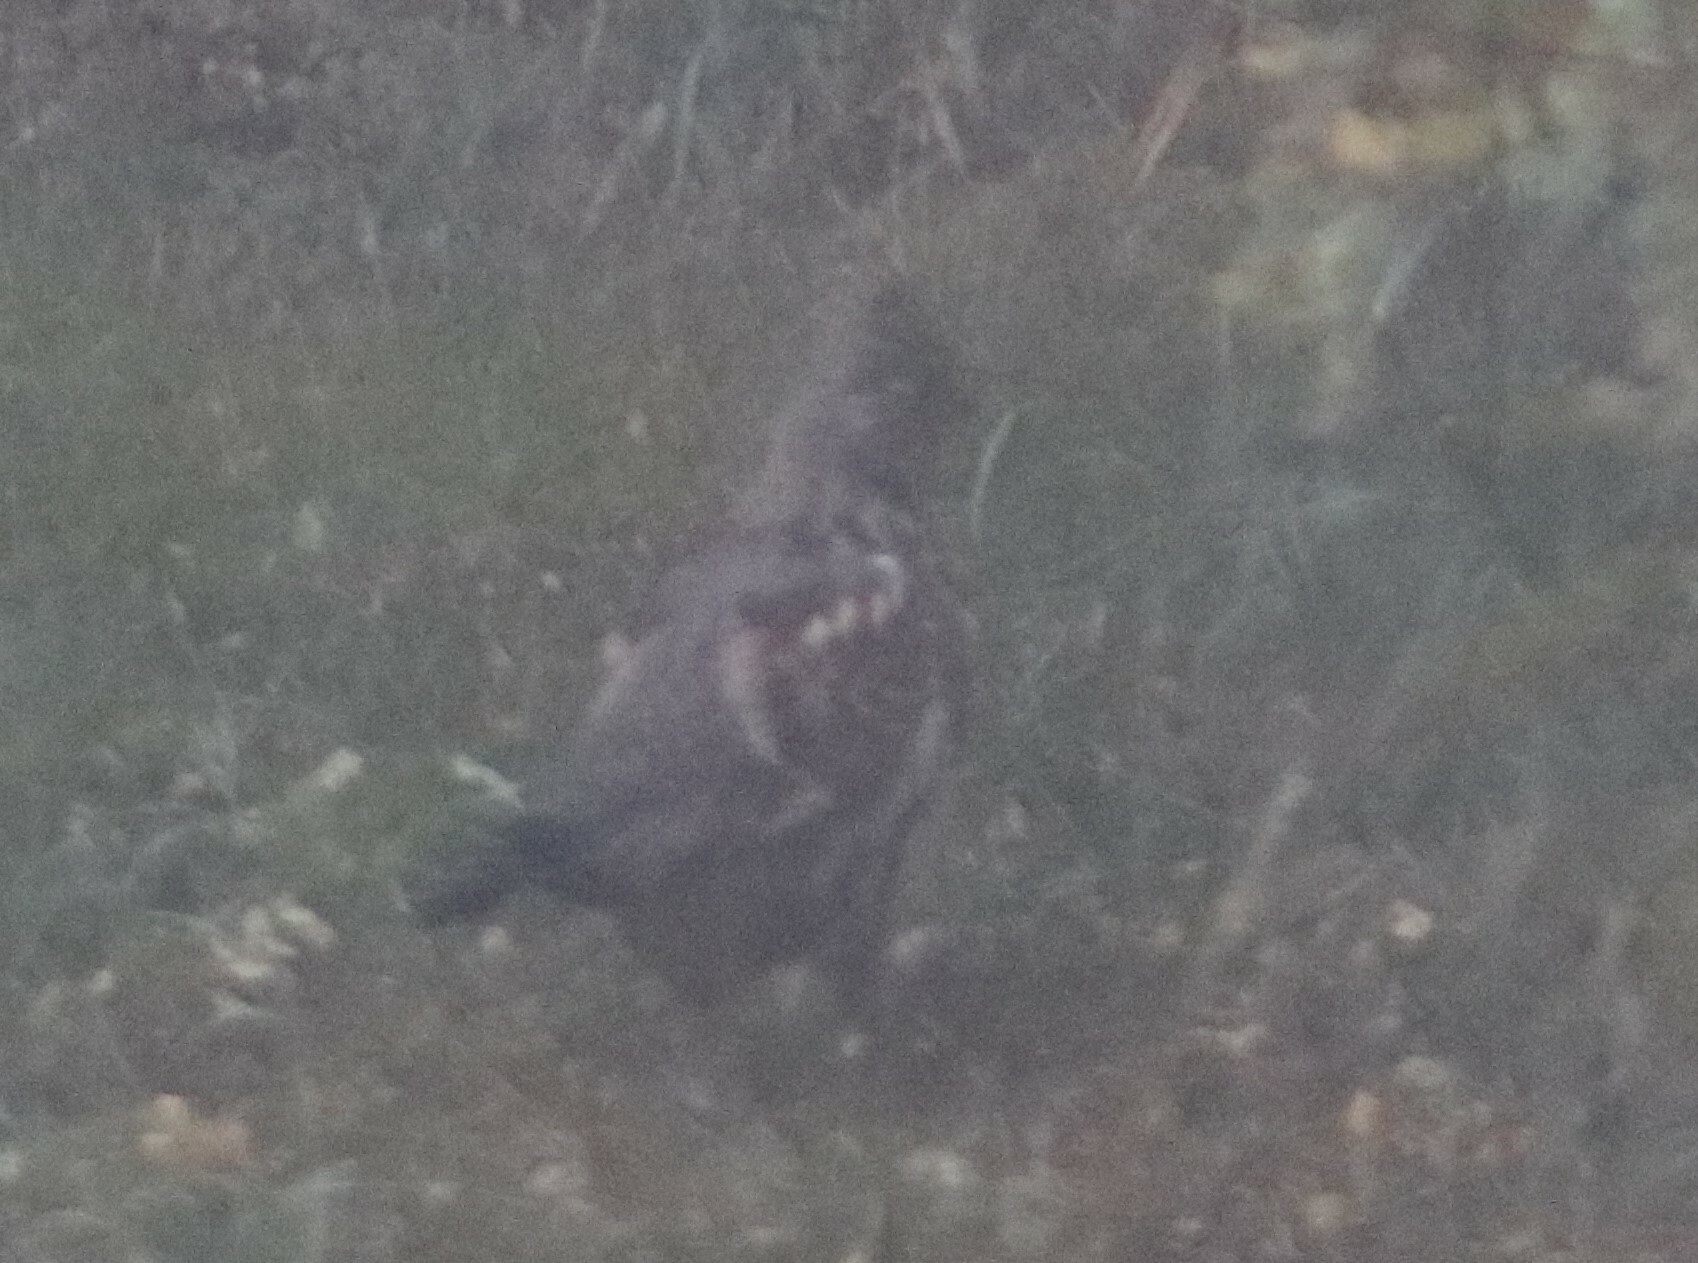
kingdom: Animalia
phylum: Chordata
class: Aves
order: Galliformes
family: Phasianidae
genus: Bonasa
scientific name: Bonasa umbellus
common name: Ruffed grouse
